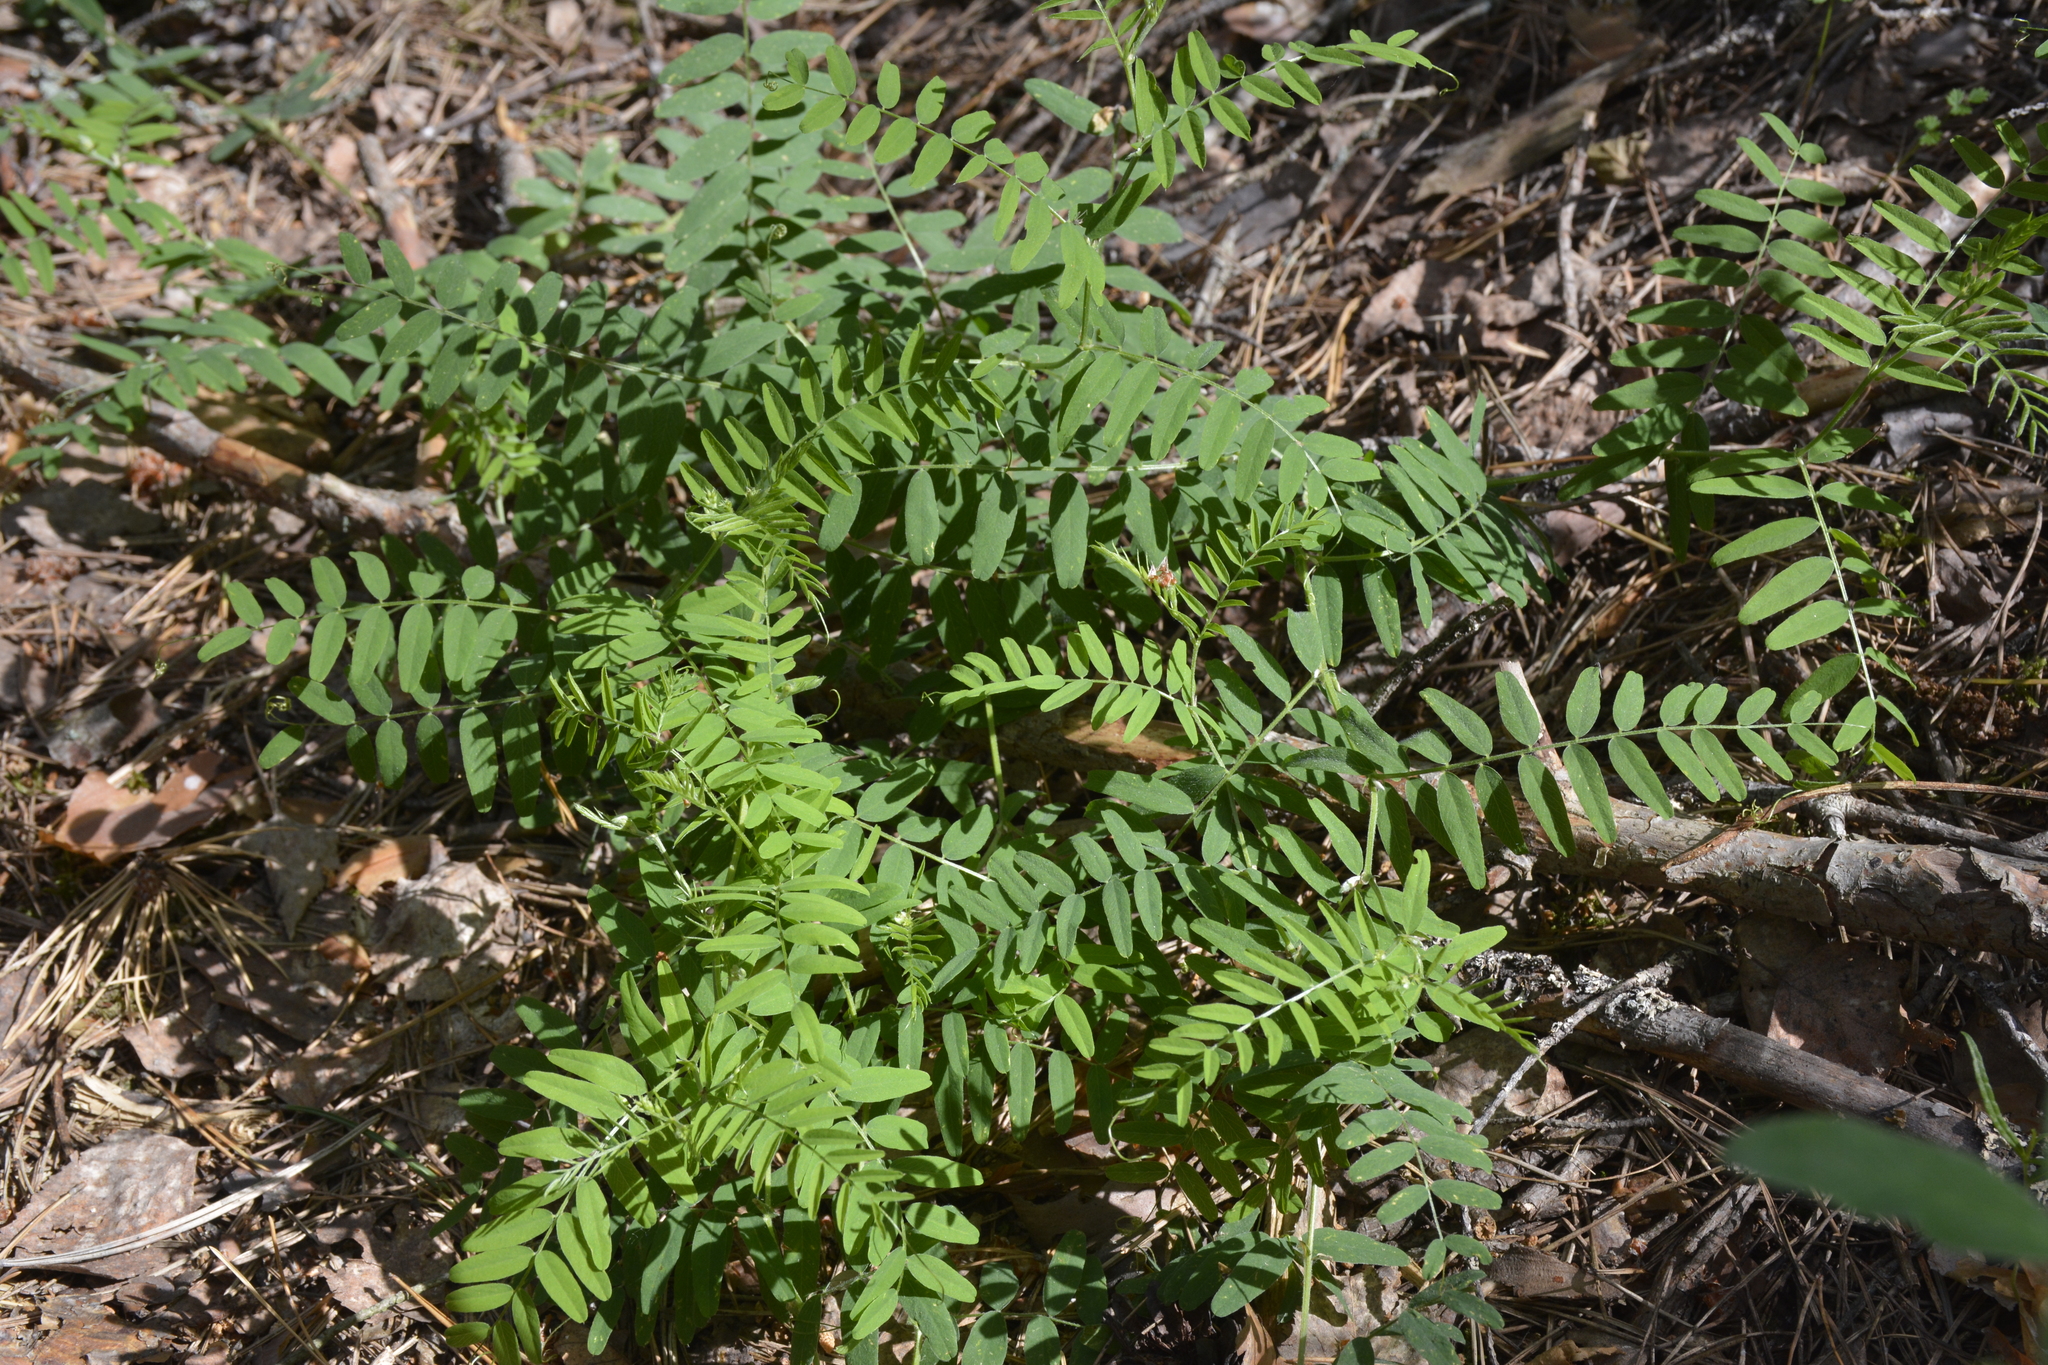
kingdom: Plantae
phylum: Tracheophyta
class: Magnoliopsida
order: Fabales
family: Fabaceae
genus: Vicia
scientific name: Vicia cassubica
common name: Danzig vetch
